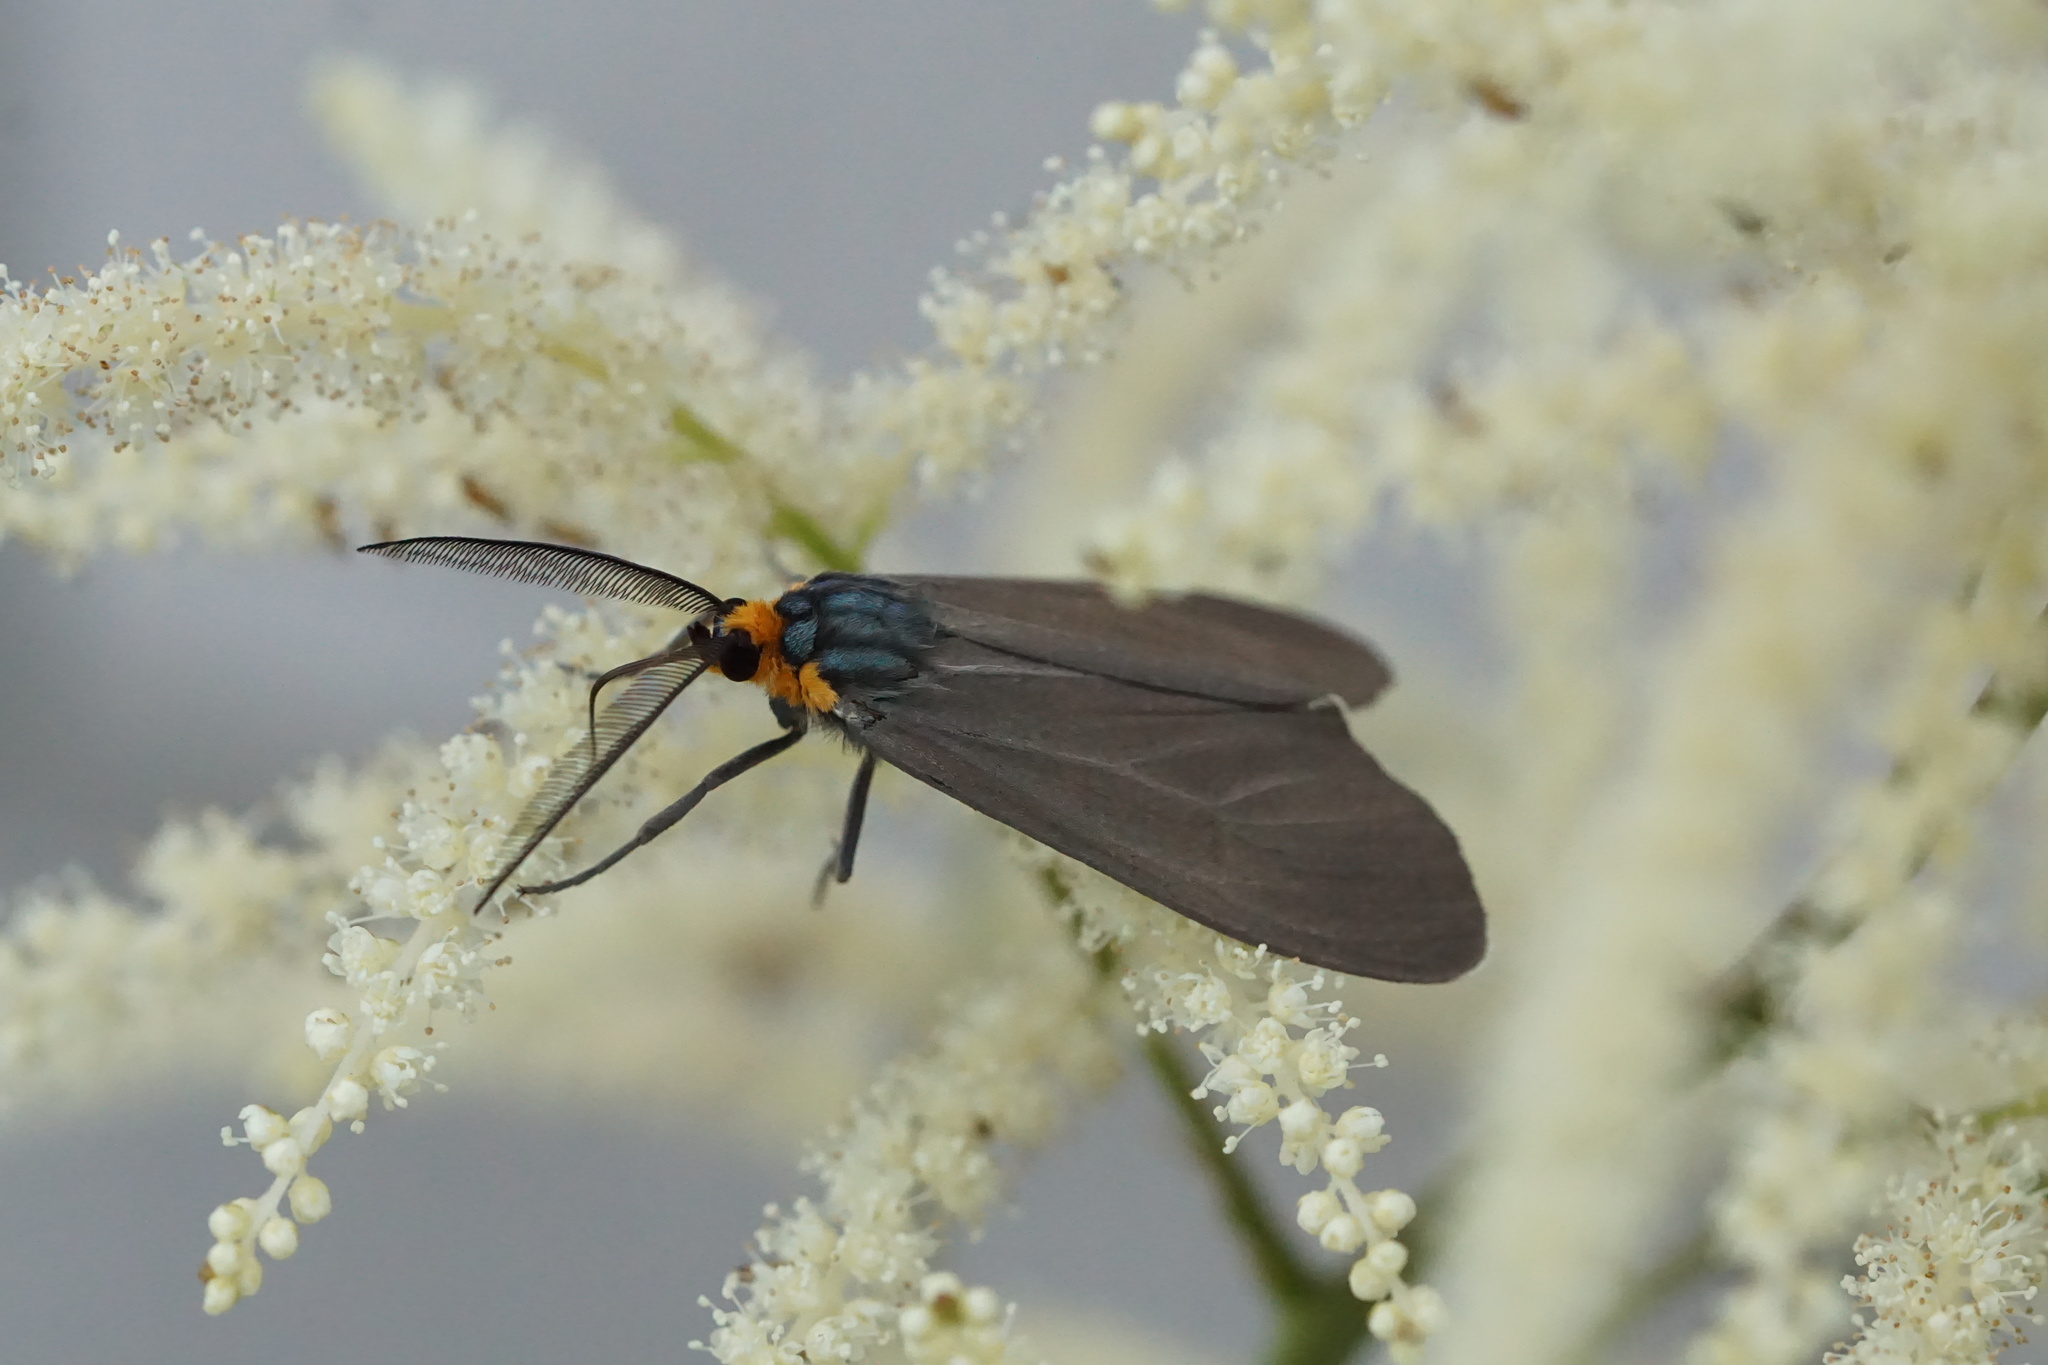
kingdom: Animalia
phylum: Arthropoda
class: Insecta
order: Lepidoptera
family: Erebidae
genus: Ctenucha
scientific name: Ctenucha virginica
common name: Virginia ctenucha moth
